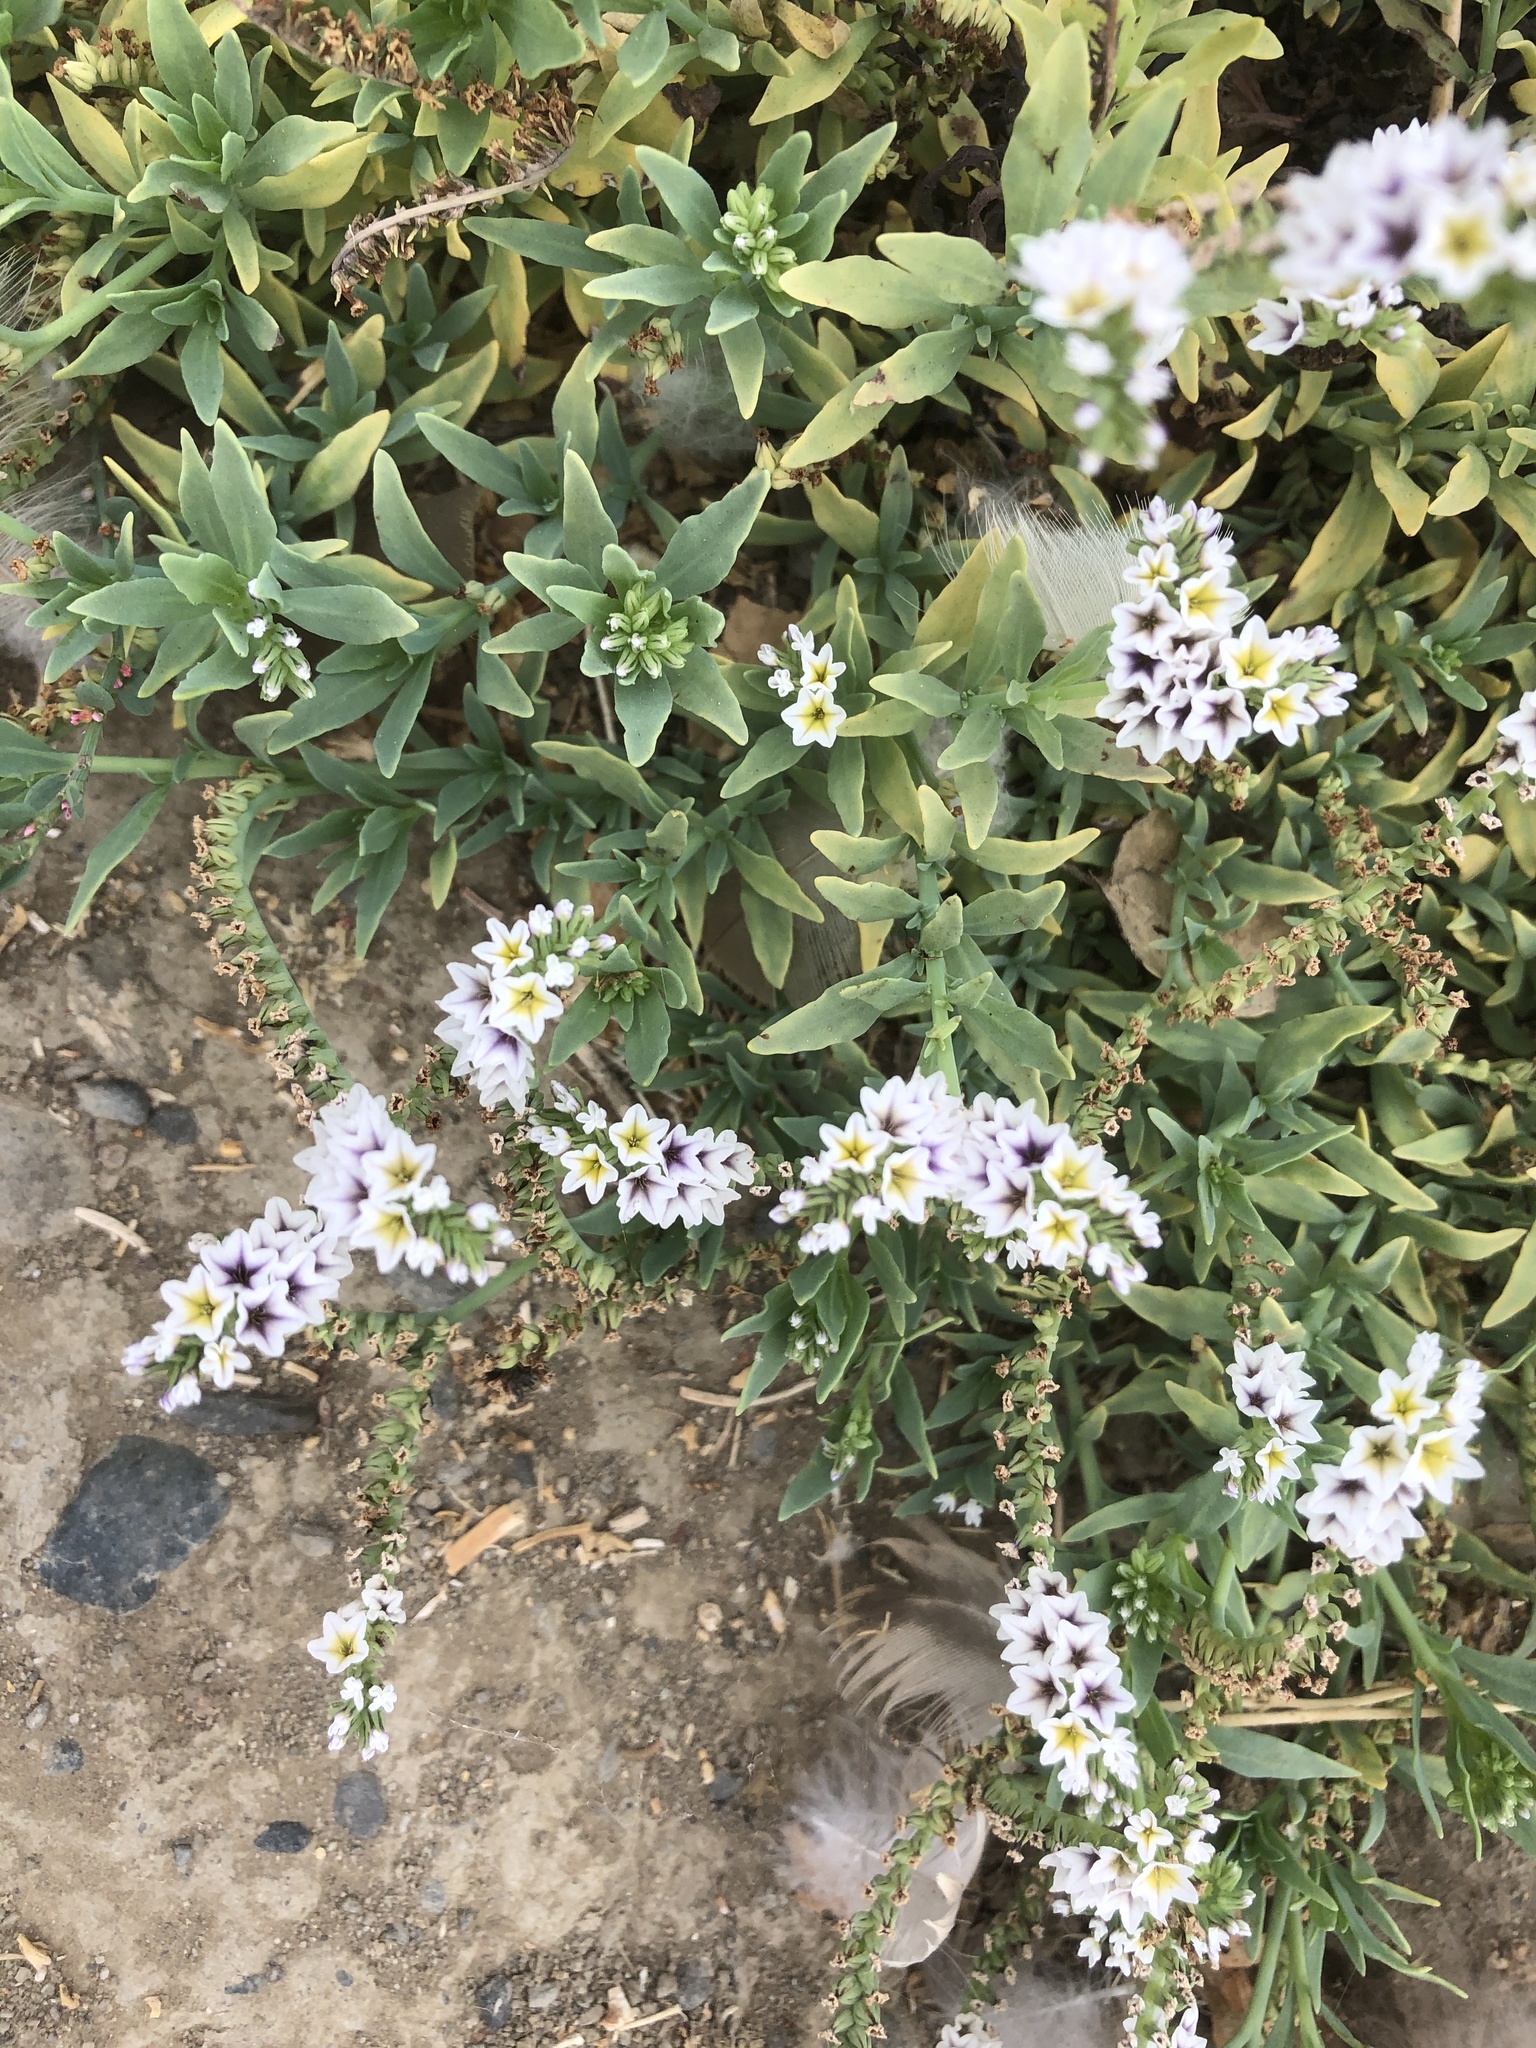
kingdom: Plantae
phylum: Tracheophyta
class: Magnoliopsida
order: Boraginales
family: Heliotropiaceae
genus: Heliotropium
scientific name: Heliotropium curassavicum
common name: Seaside heliotrope
